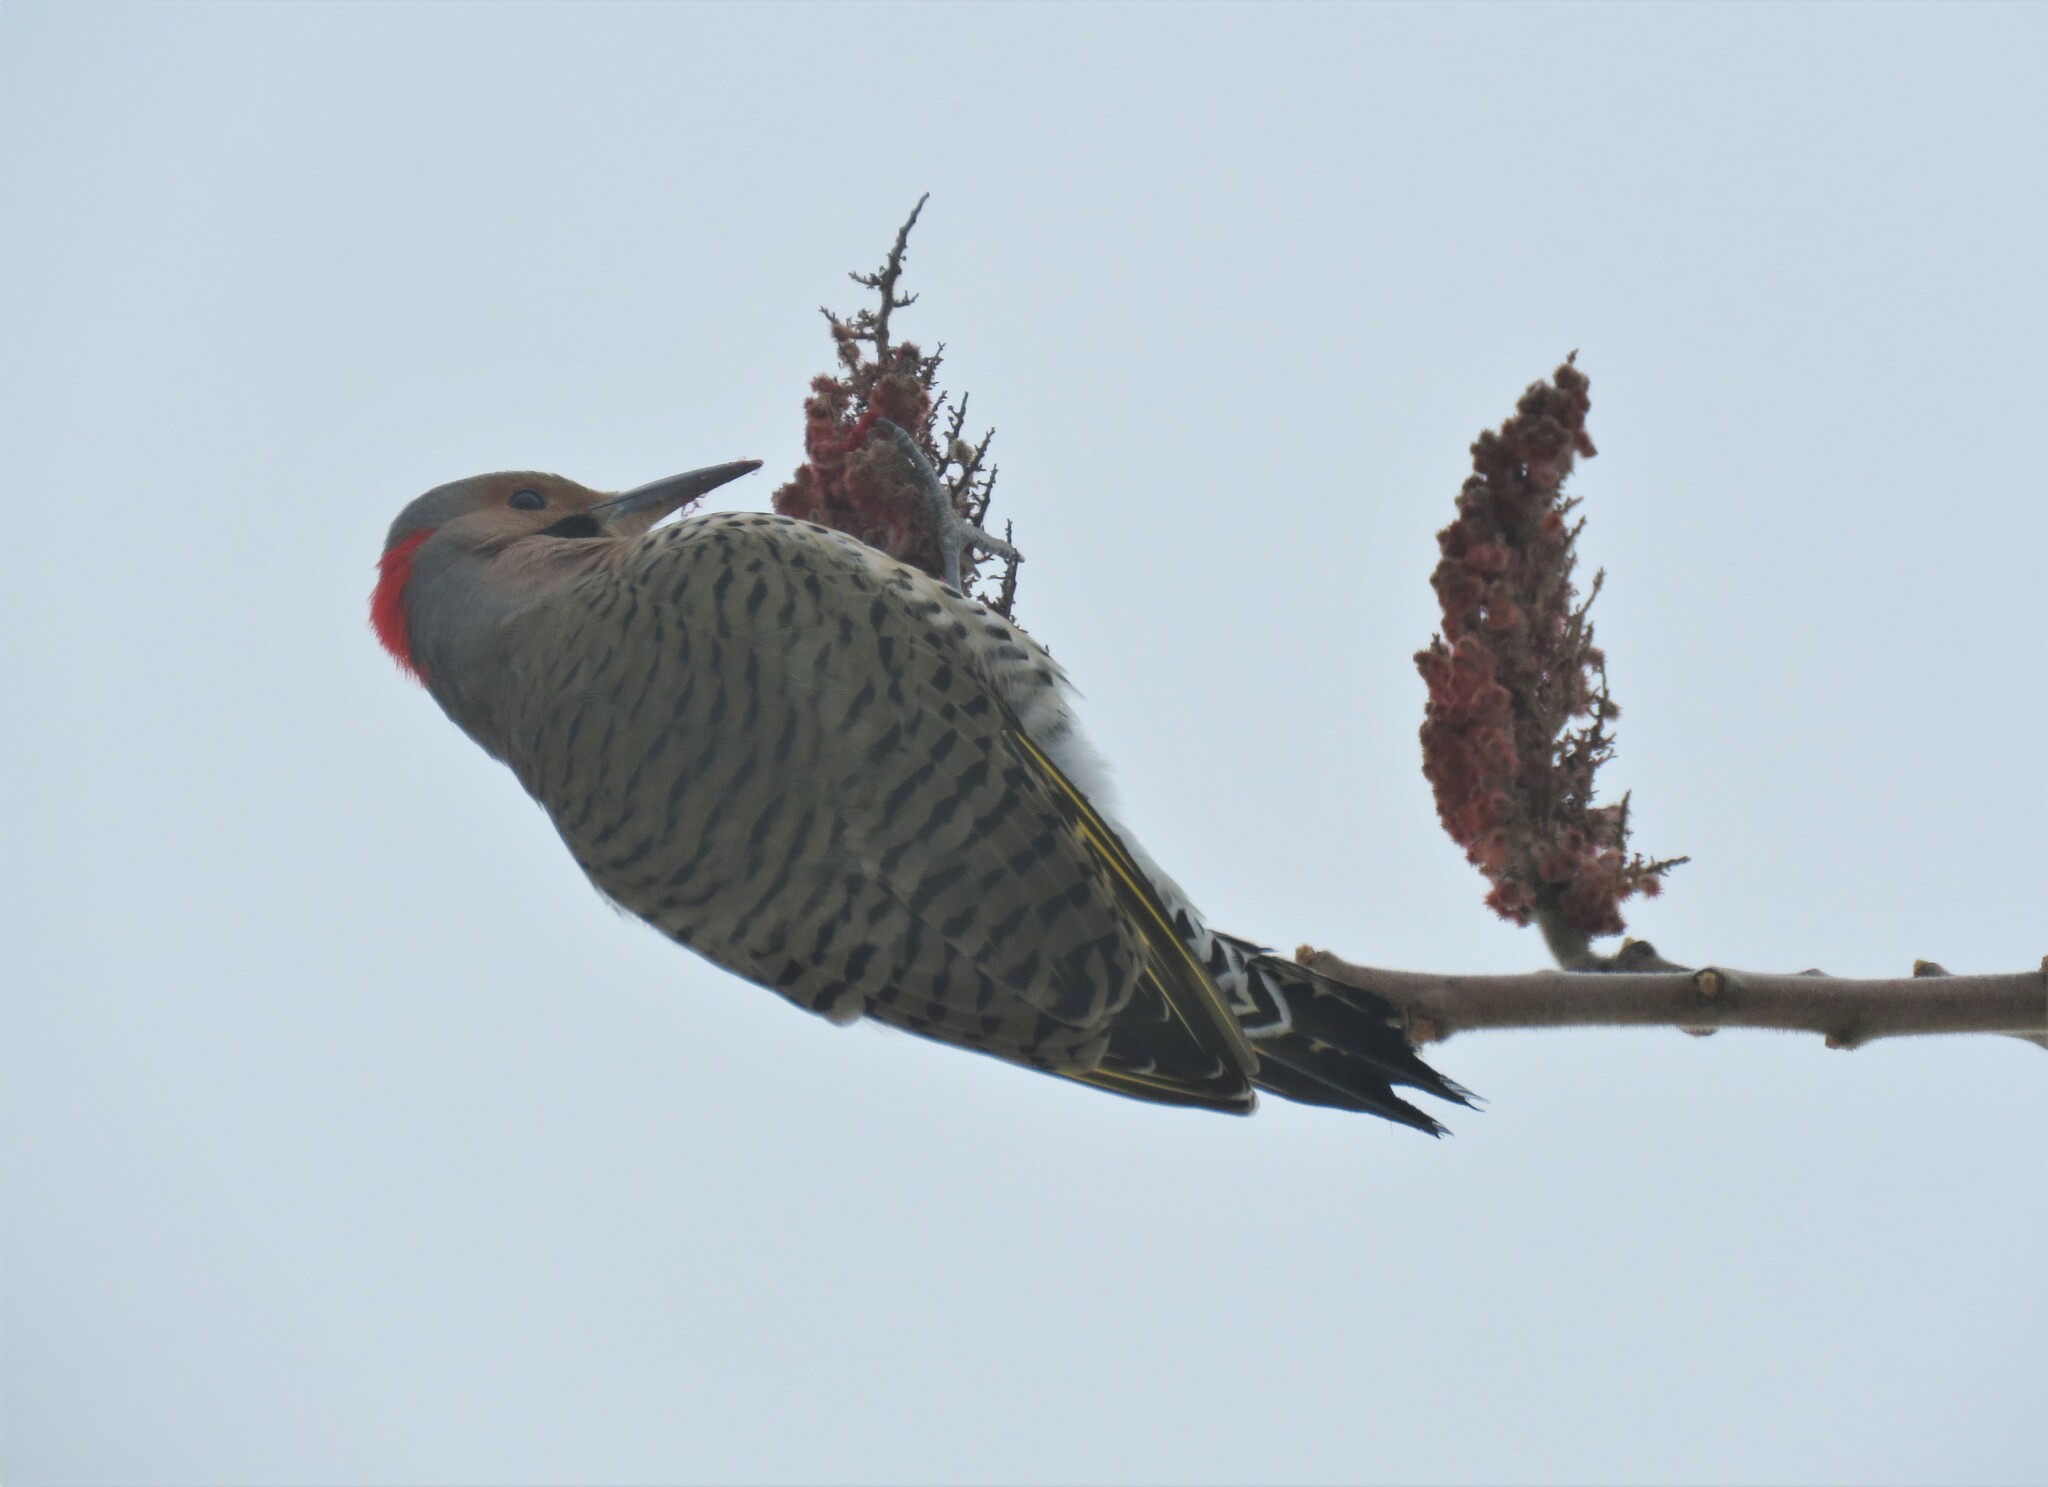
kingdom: Animalia
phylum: Chordata
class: Aves
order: Piciformes
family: Picidae
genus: Colaptes
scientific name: Colaptes auratus
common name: Northern flicker
